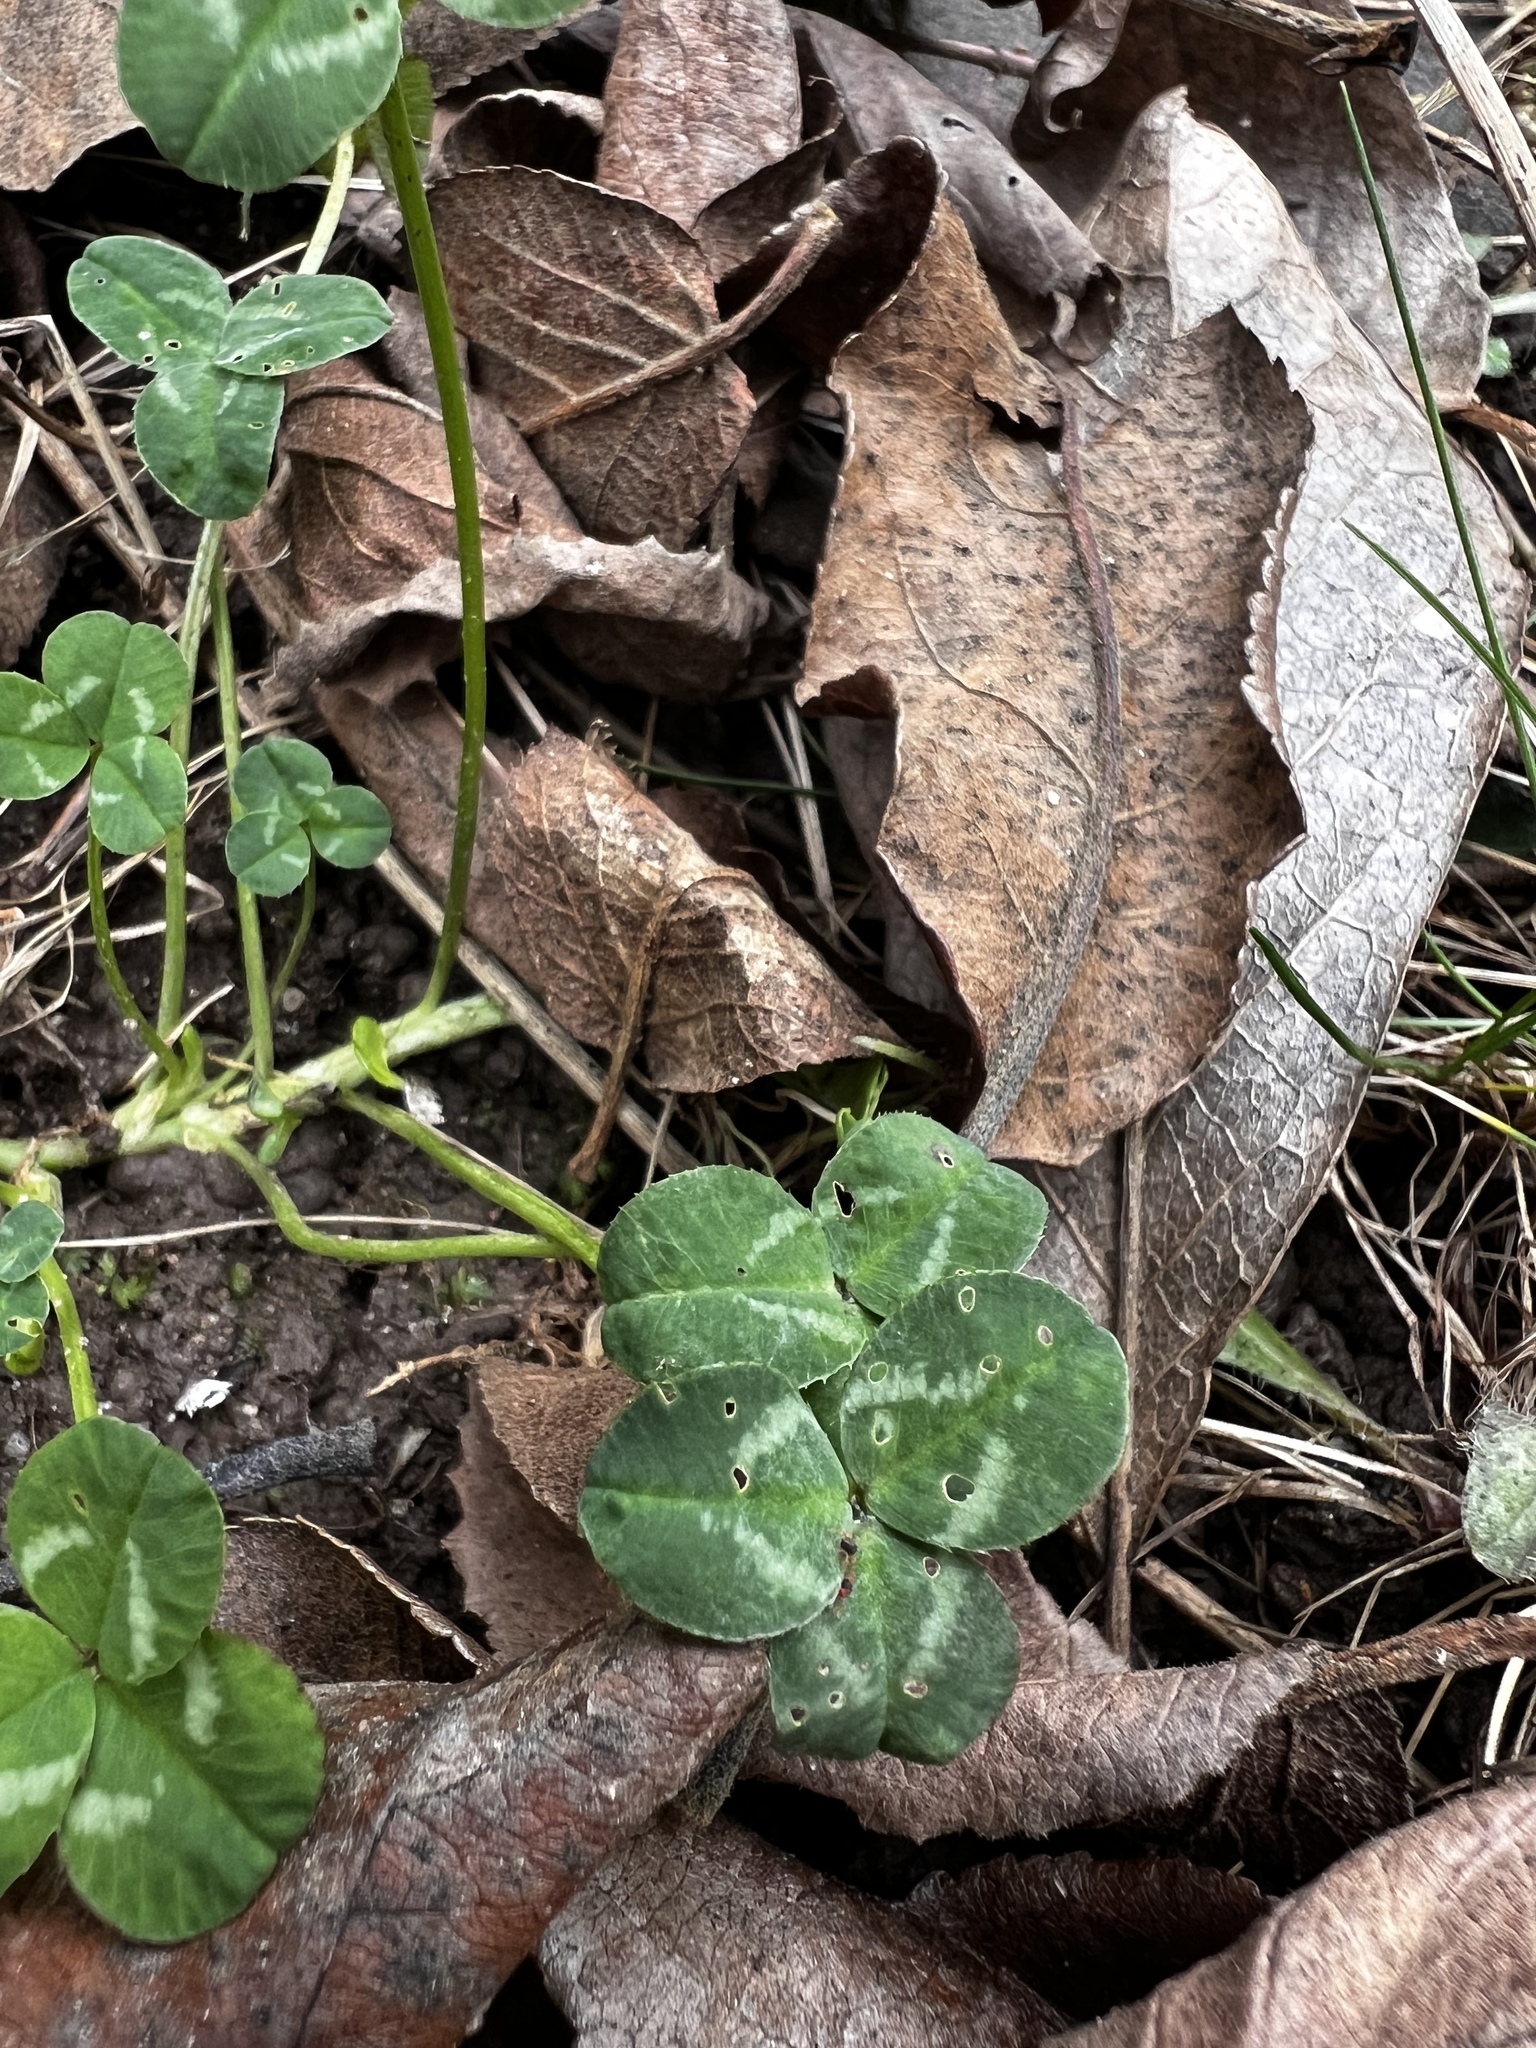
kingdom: Plantae
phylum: Tracheophyta
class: Magnoliopsida
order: Fabales
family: Fabaceae
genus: Trifolium
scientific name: Trifolium repens
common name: White clover
